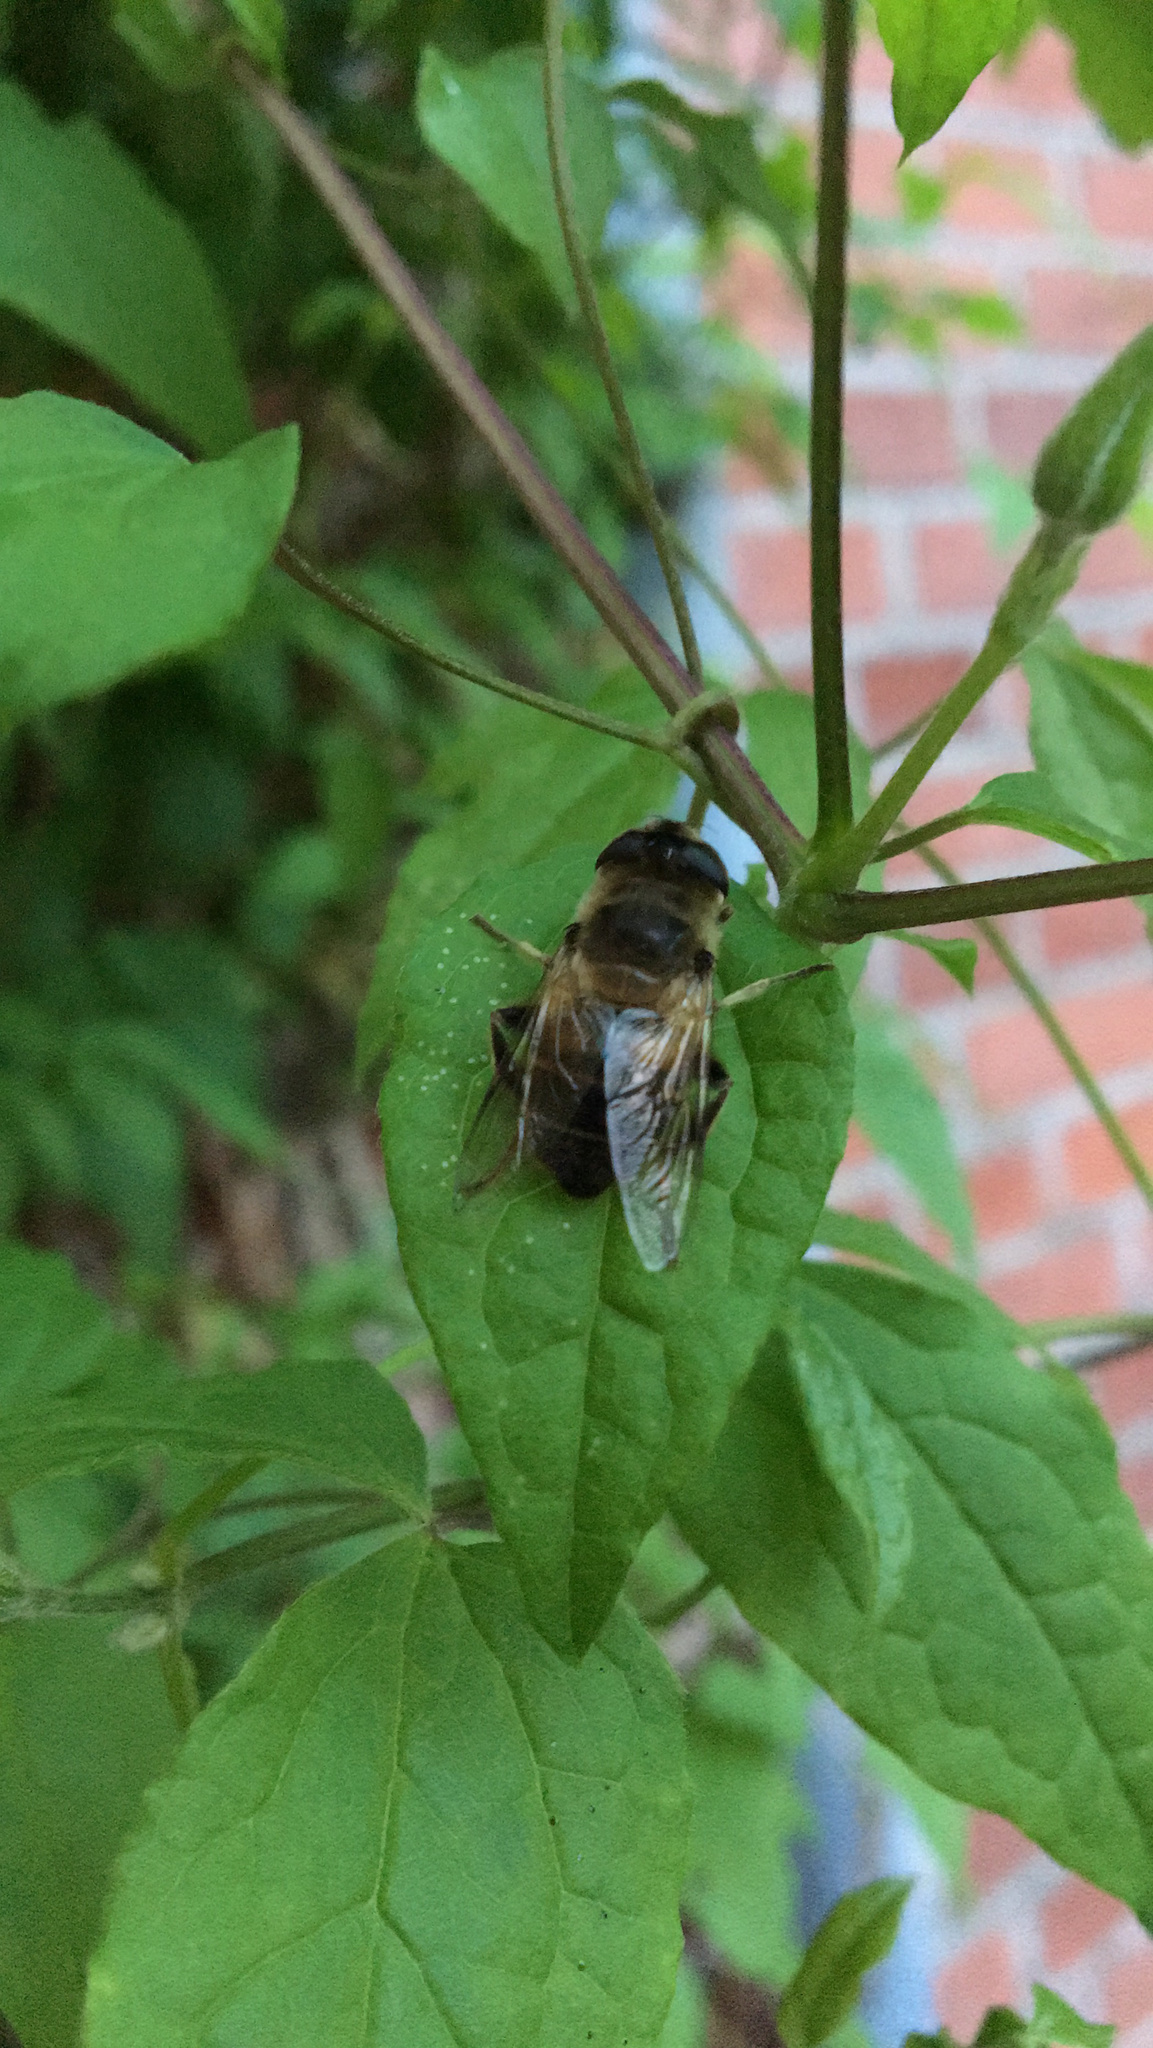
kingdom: Animalia
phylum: Arthropoda
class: Insecta
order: Diptera
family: Syrphidae
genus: Eristalis
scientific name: Eristalis tenax
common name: Drone fly
